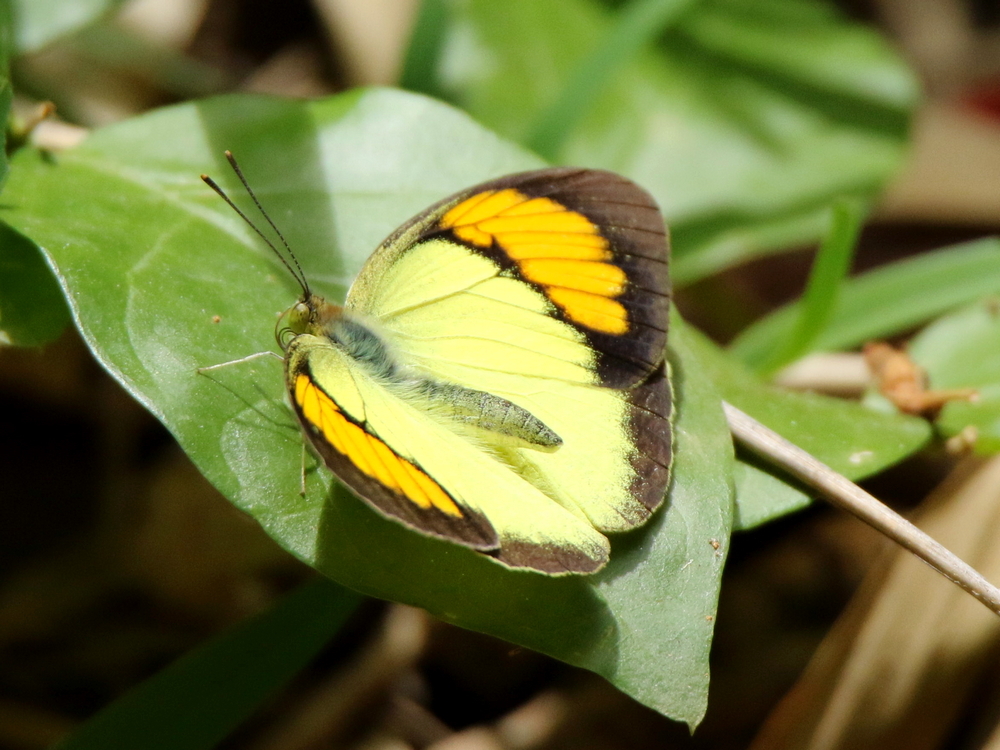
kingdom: Animalia
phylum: Arthropoda
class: Insecta
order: Lepidoptera
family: Pieridae
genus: Ixias
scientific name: Ixias pyrene
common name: Yellow orange tip
